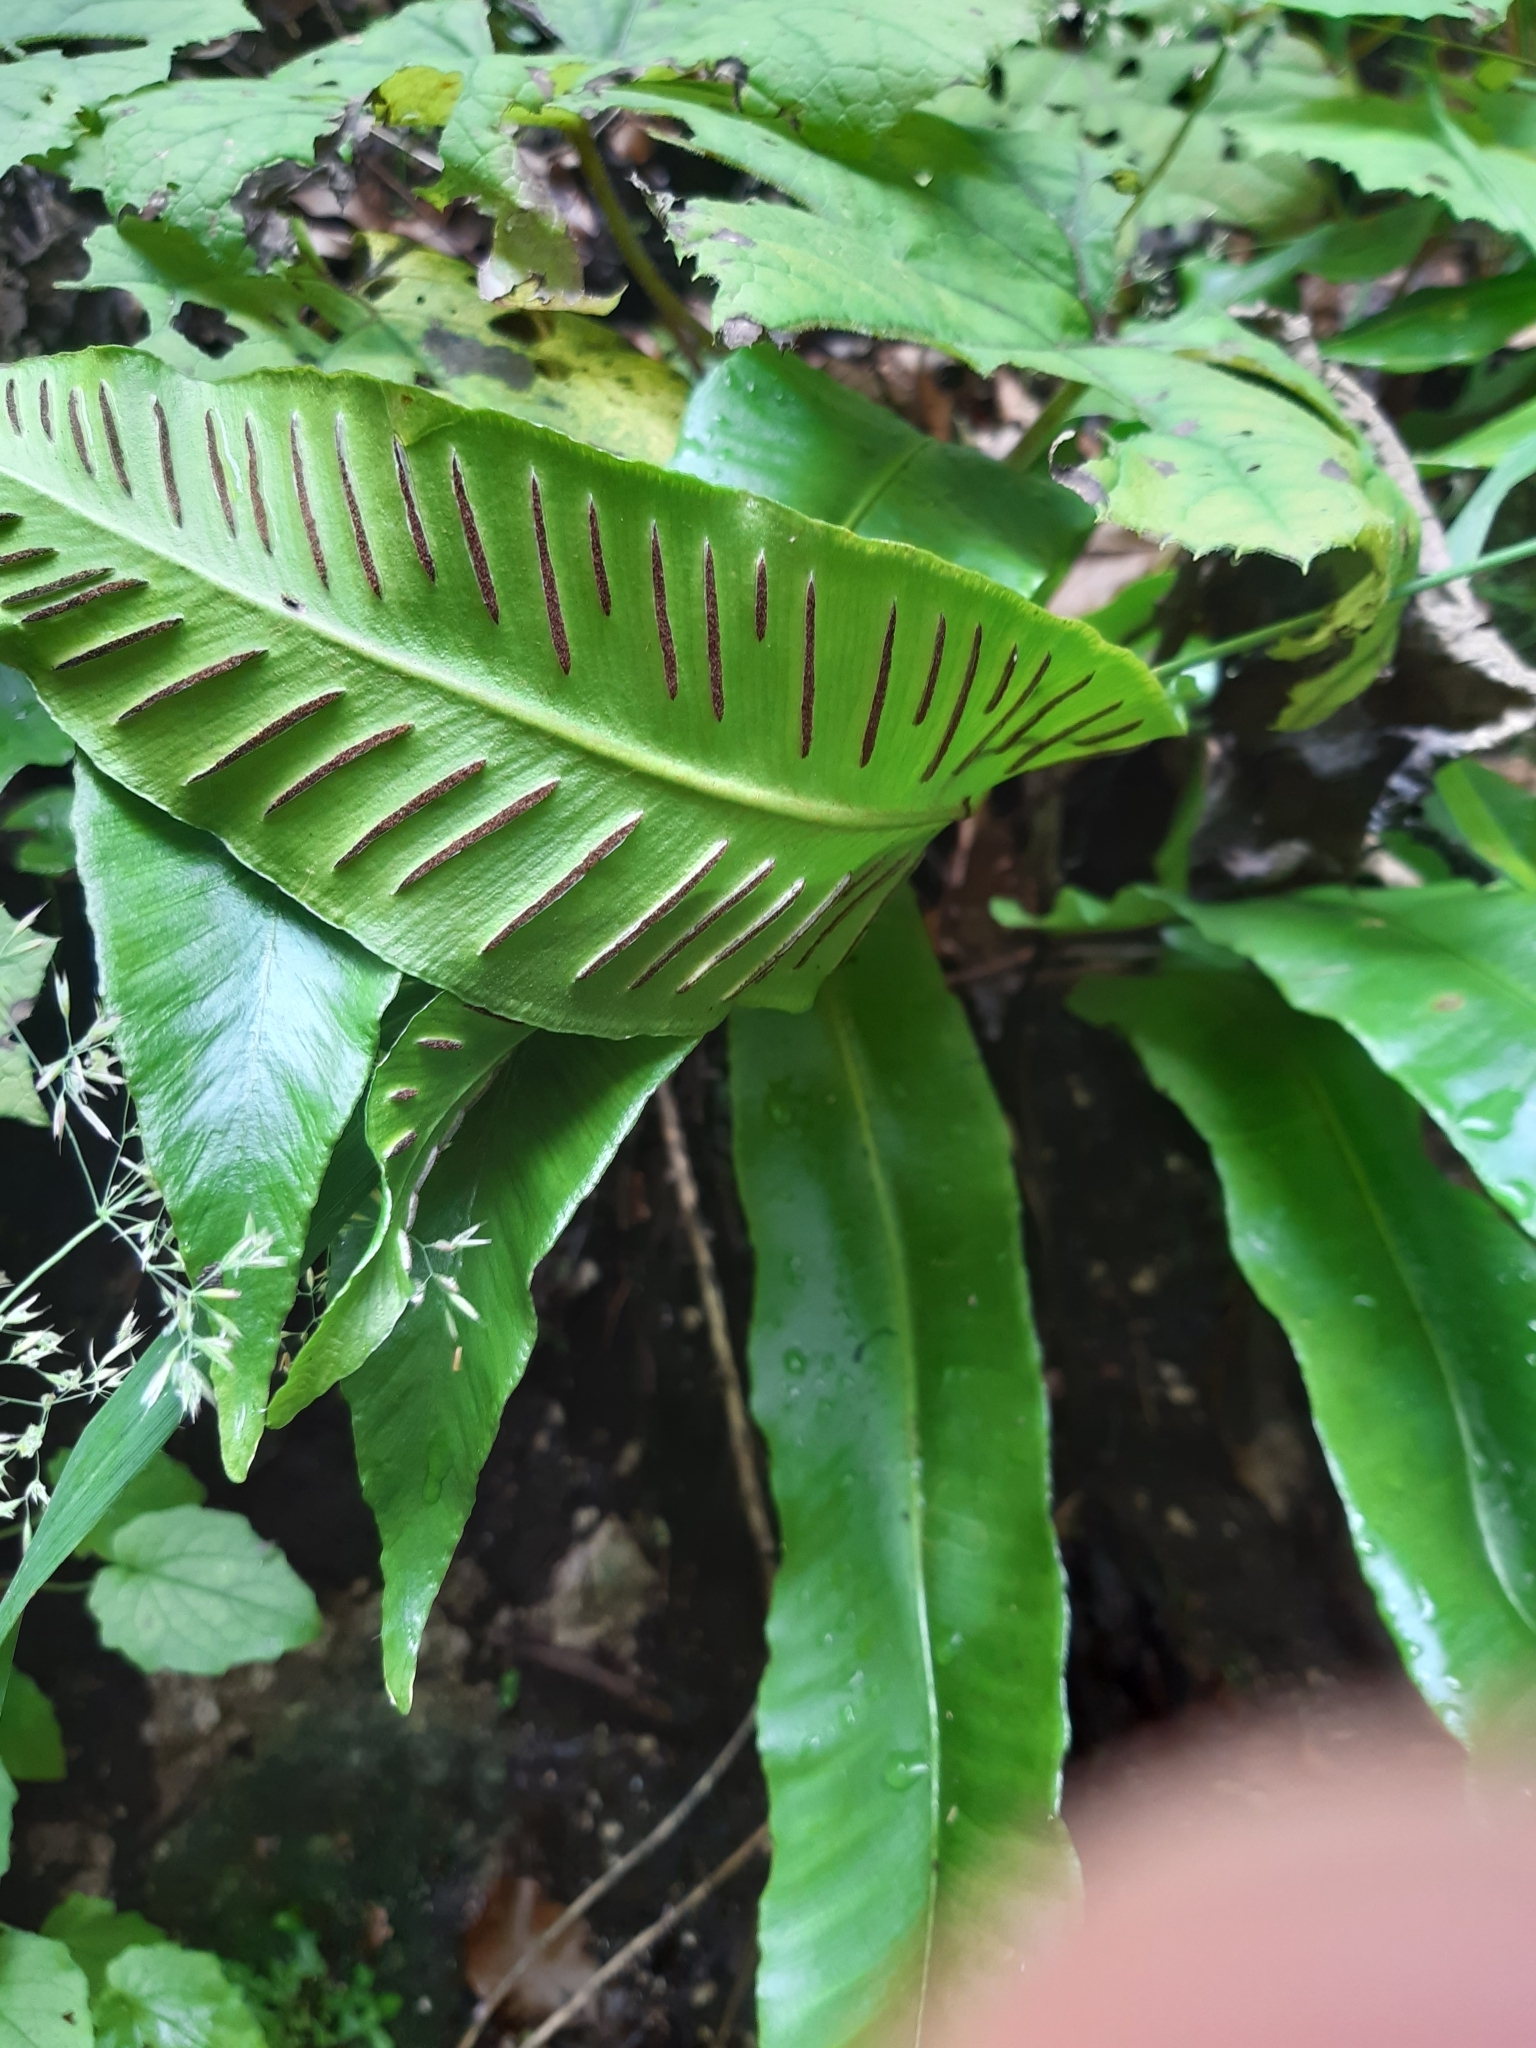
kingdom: Plantae
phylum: Tracheophyta
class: Polypodiopsida
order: Polypodiales
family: Aspleniaceae
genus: Asplenium
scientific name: Asplenium scolopendrium
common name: Hart's-tongue fern
